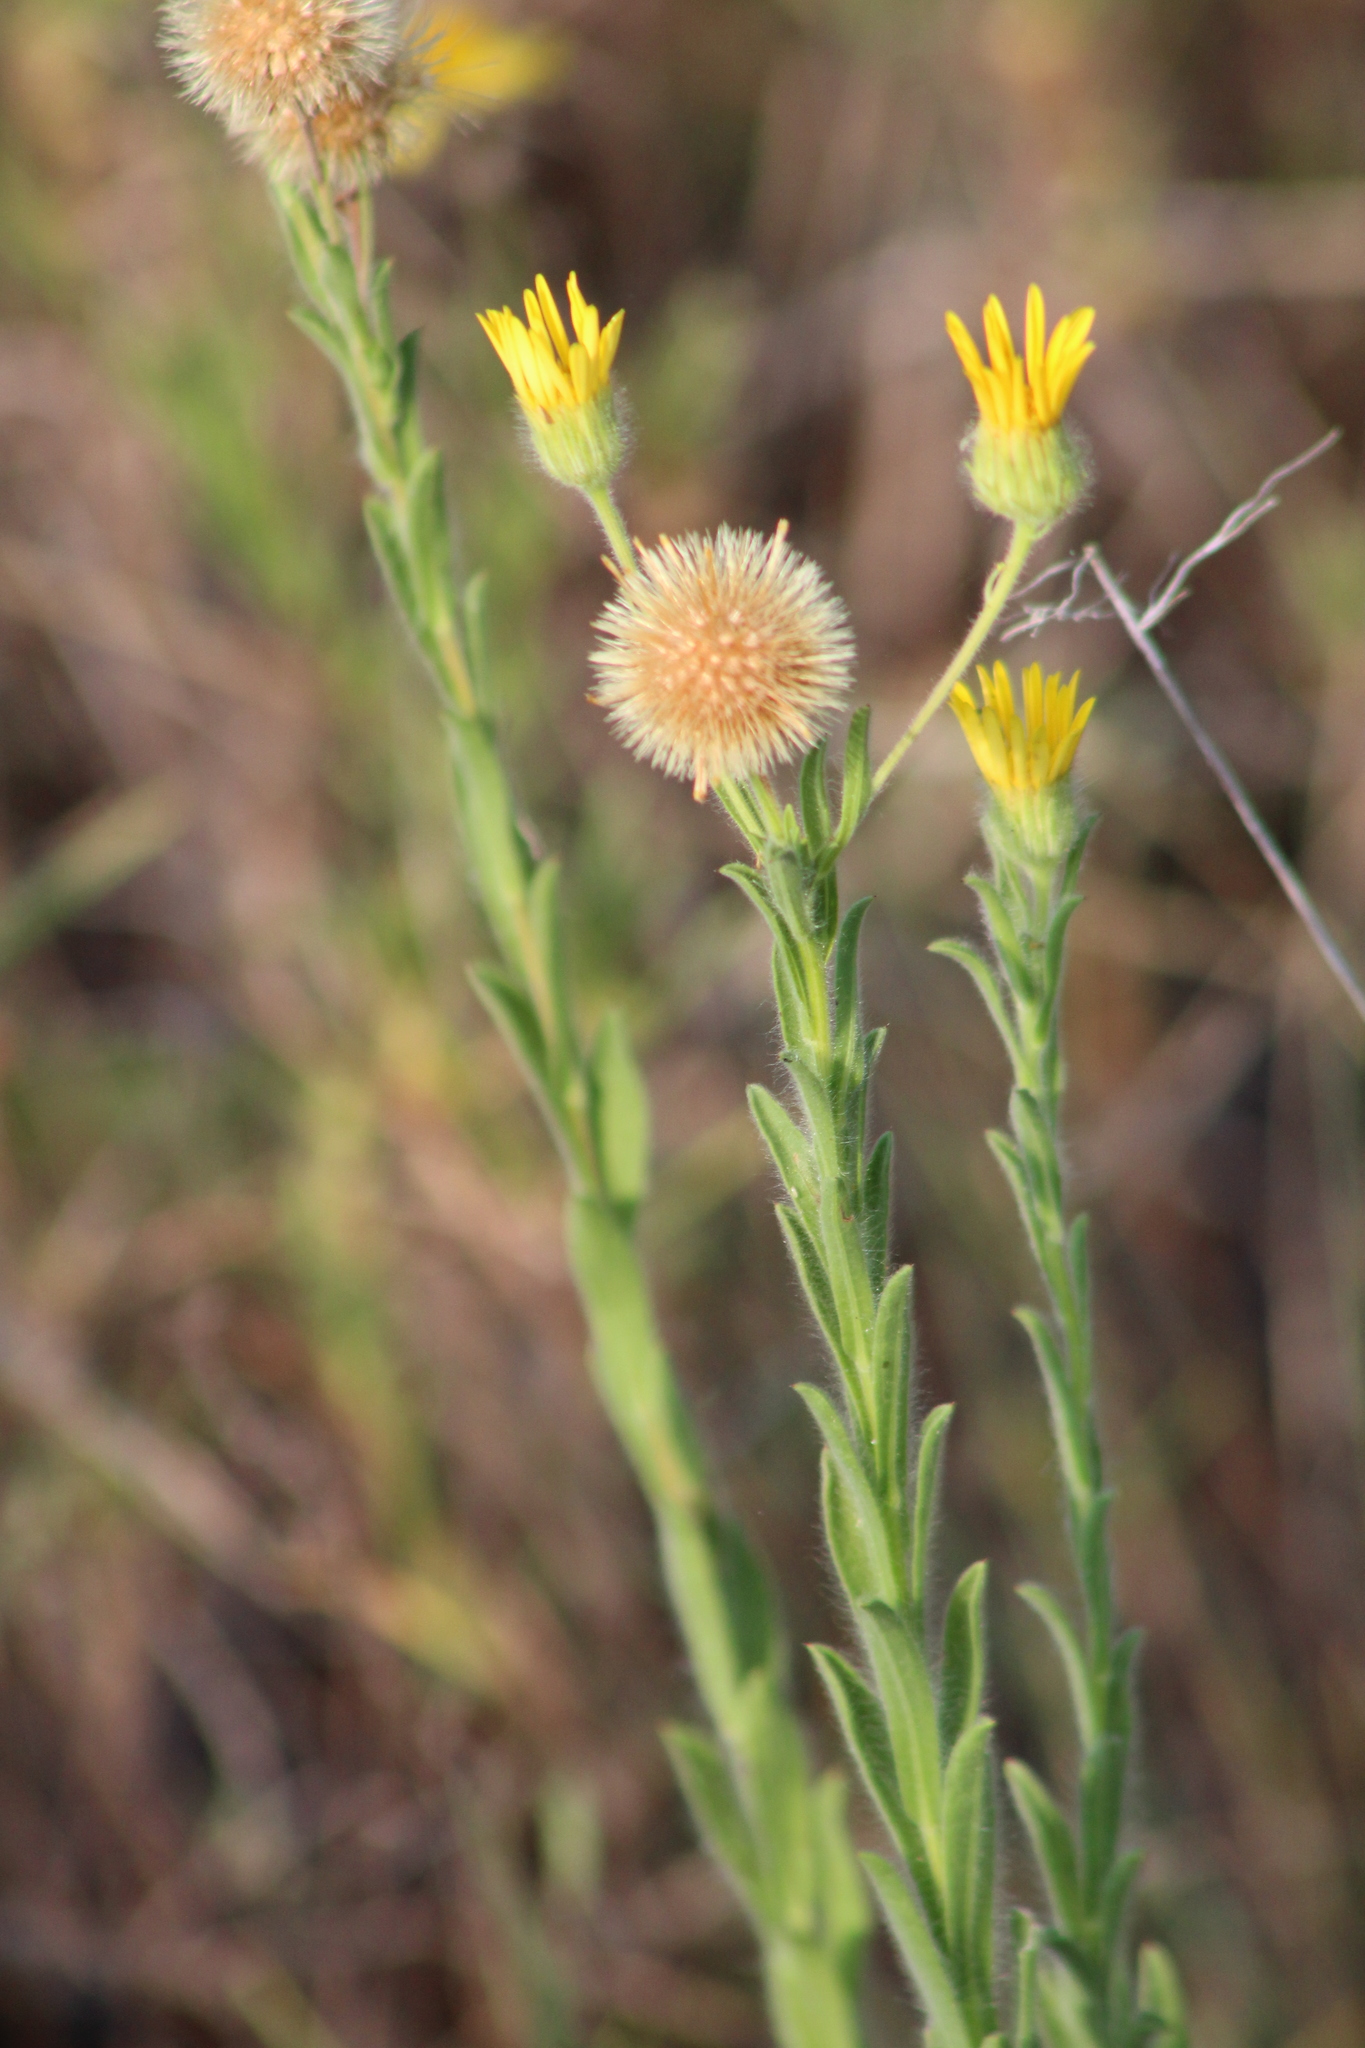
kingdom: Plantae
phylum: Tracheophyta
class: Magnoliopsida
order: Asterales
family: Asteraceae
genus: Bradburia
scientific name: Bradburia pilosa
